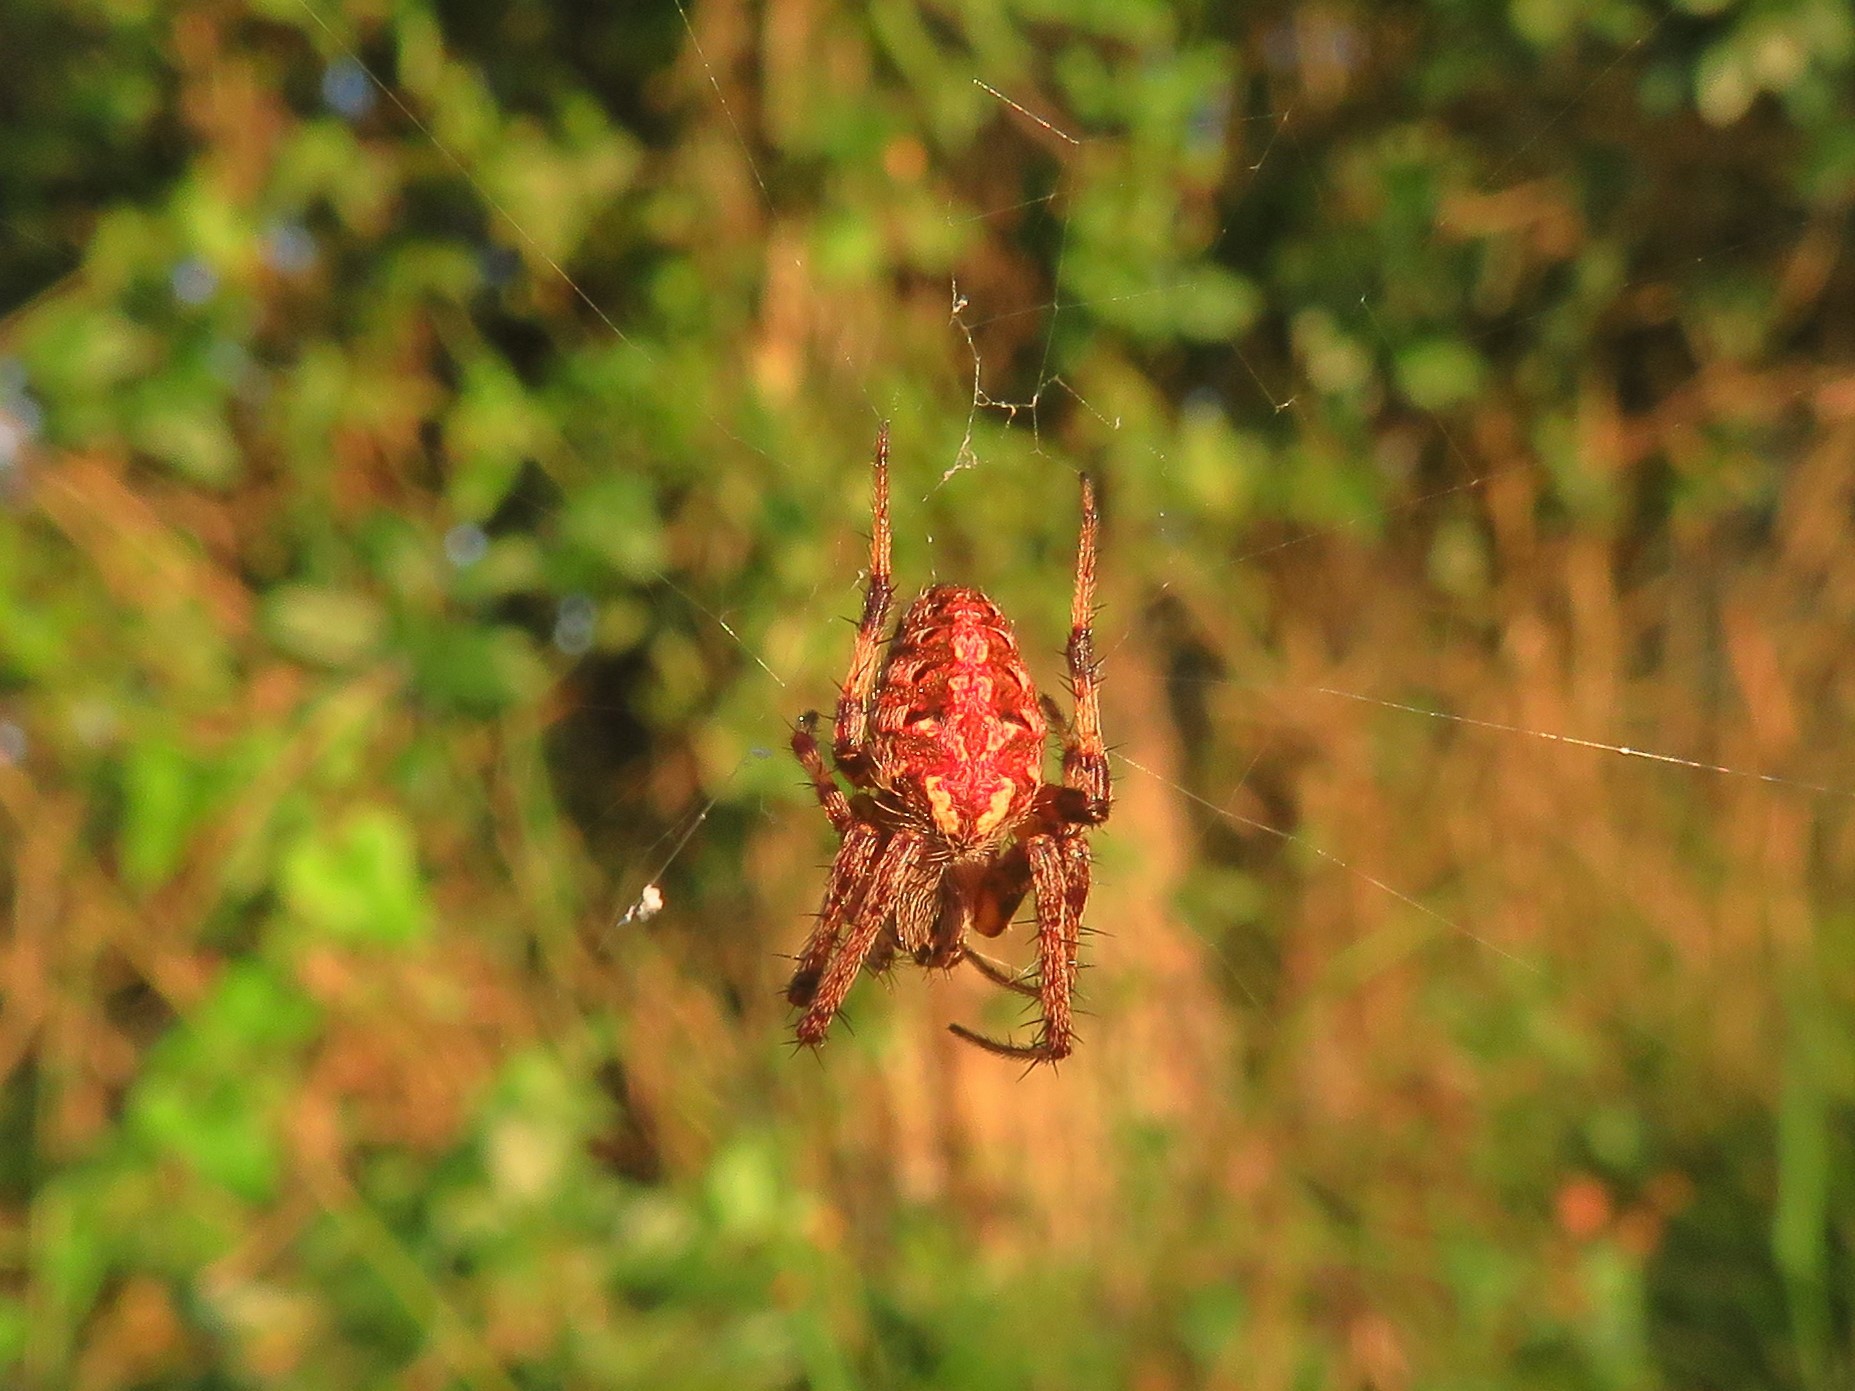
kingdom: Animalia
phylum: Arthropoda
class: Arachnida
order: Araneae
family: Araneidae
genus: Neoscona
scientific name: Neoscona arabesca
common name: Orb weavers
